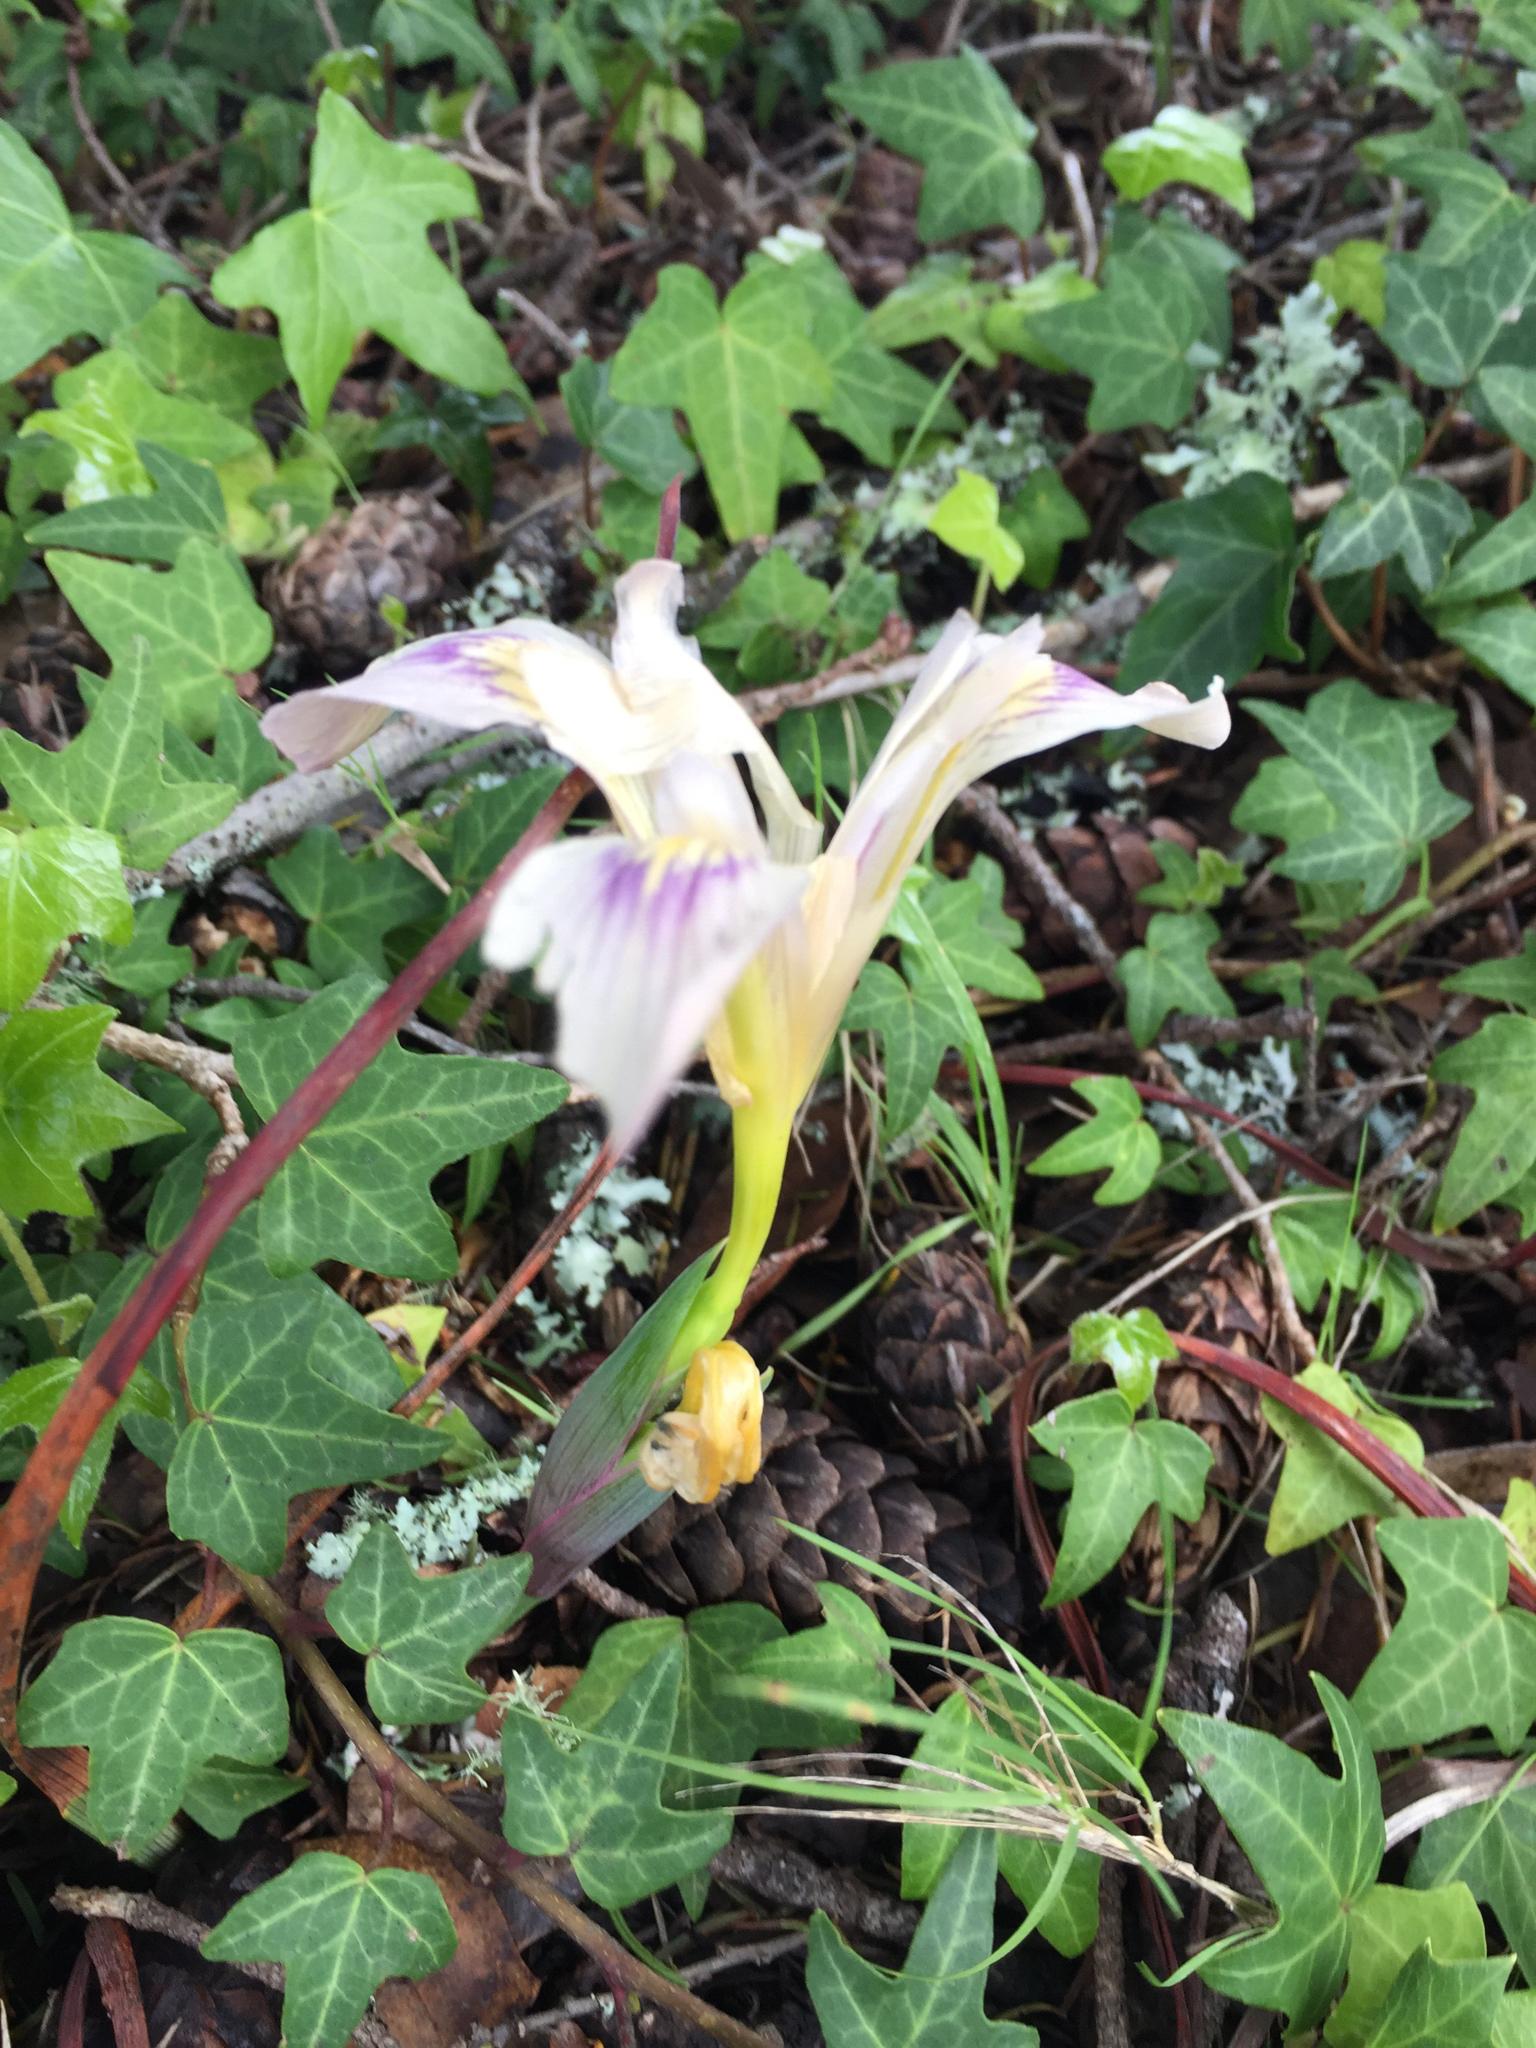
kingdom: Plantae
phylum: Tracheophyta
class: Liliopsida
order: Asparagales
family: Iridaceae
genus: Iris
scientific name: Iris douglasiana
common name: Marin iris
